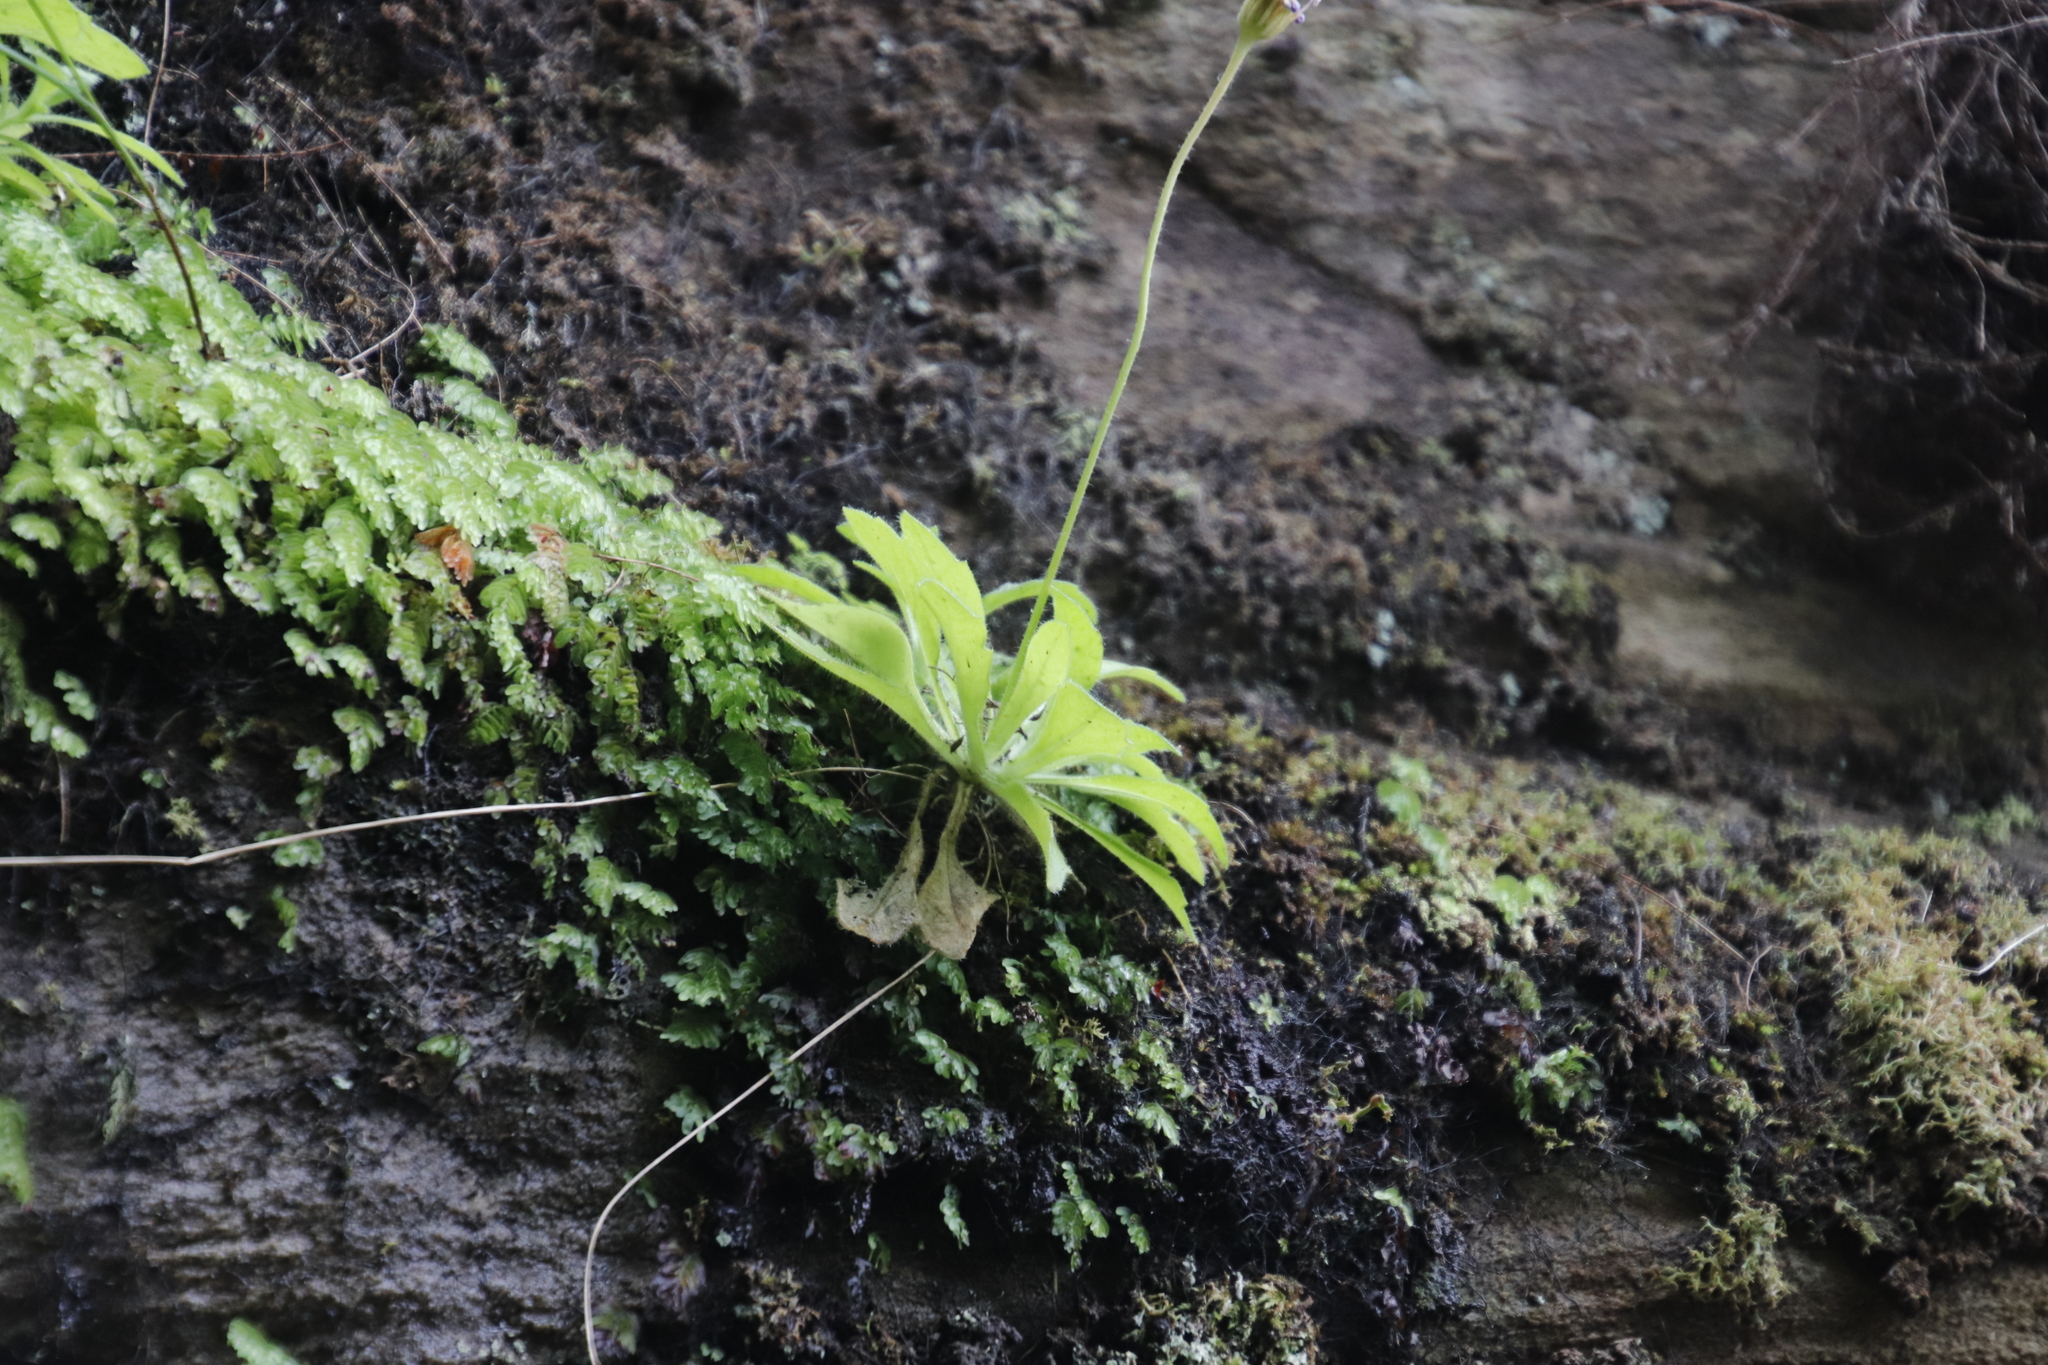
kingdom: Plantae
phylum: Tracheophyta
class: Magnoliopsida
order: Asterales
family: Asteraceae
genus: Felicia
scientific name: Felicia cymbalarioides
